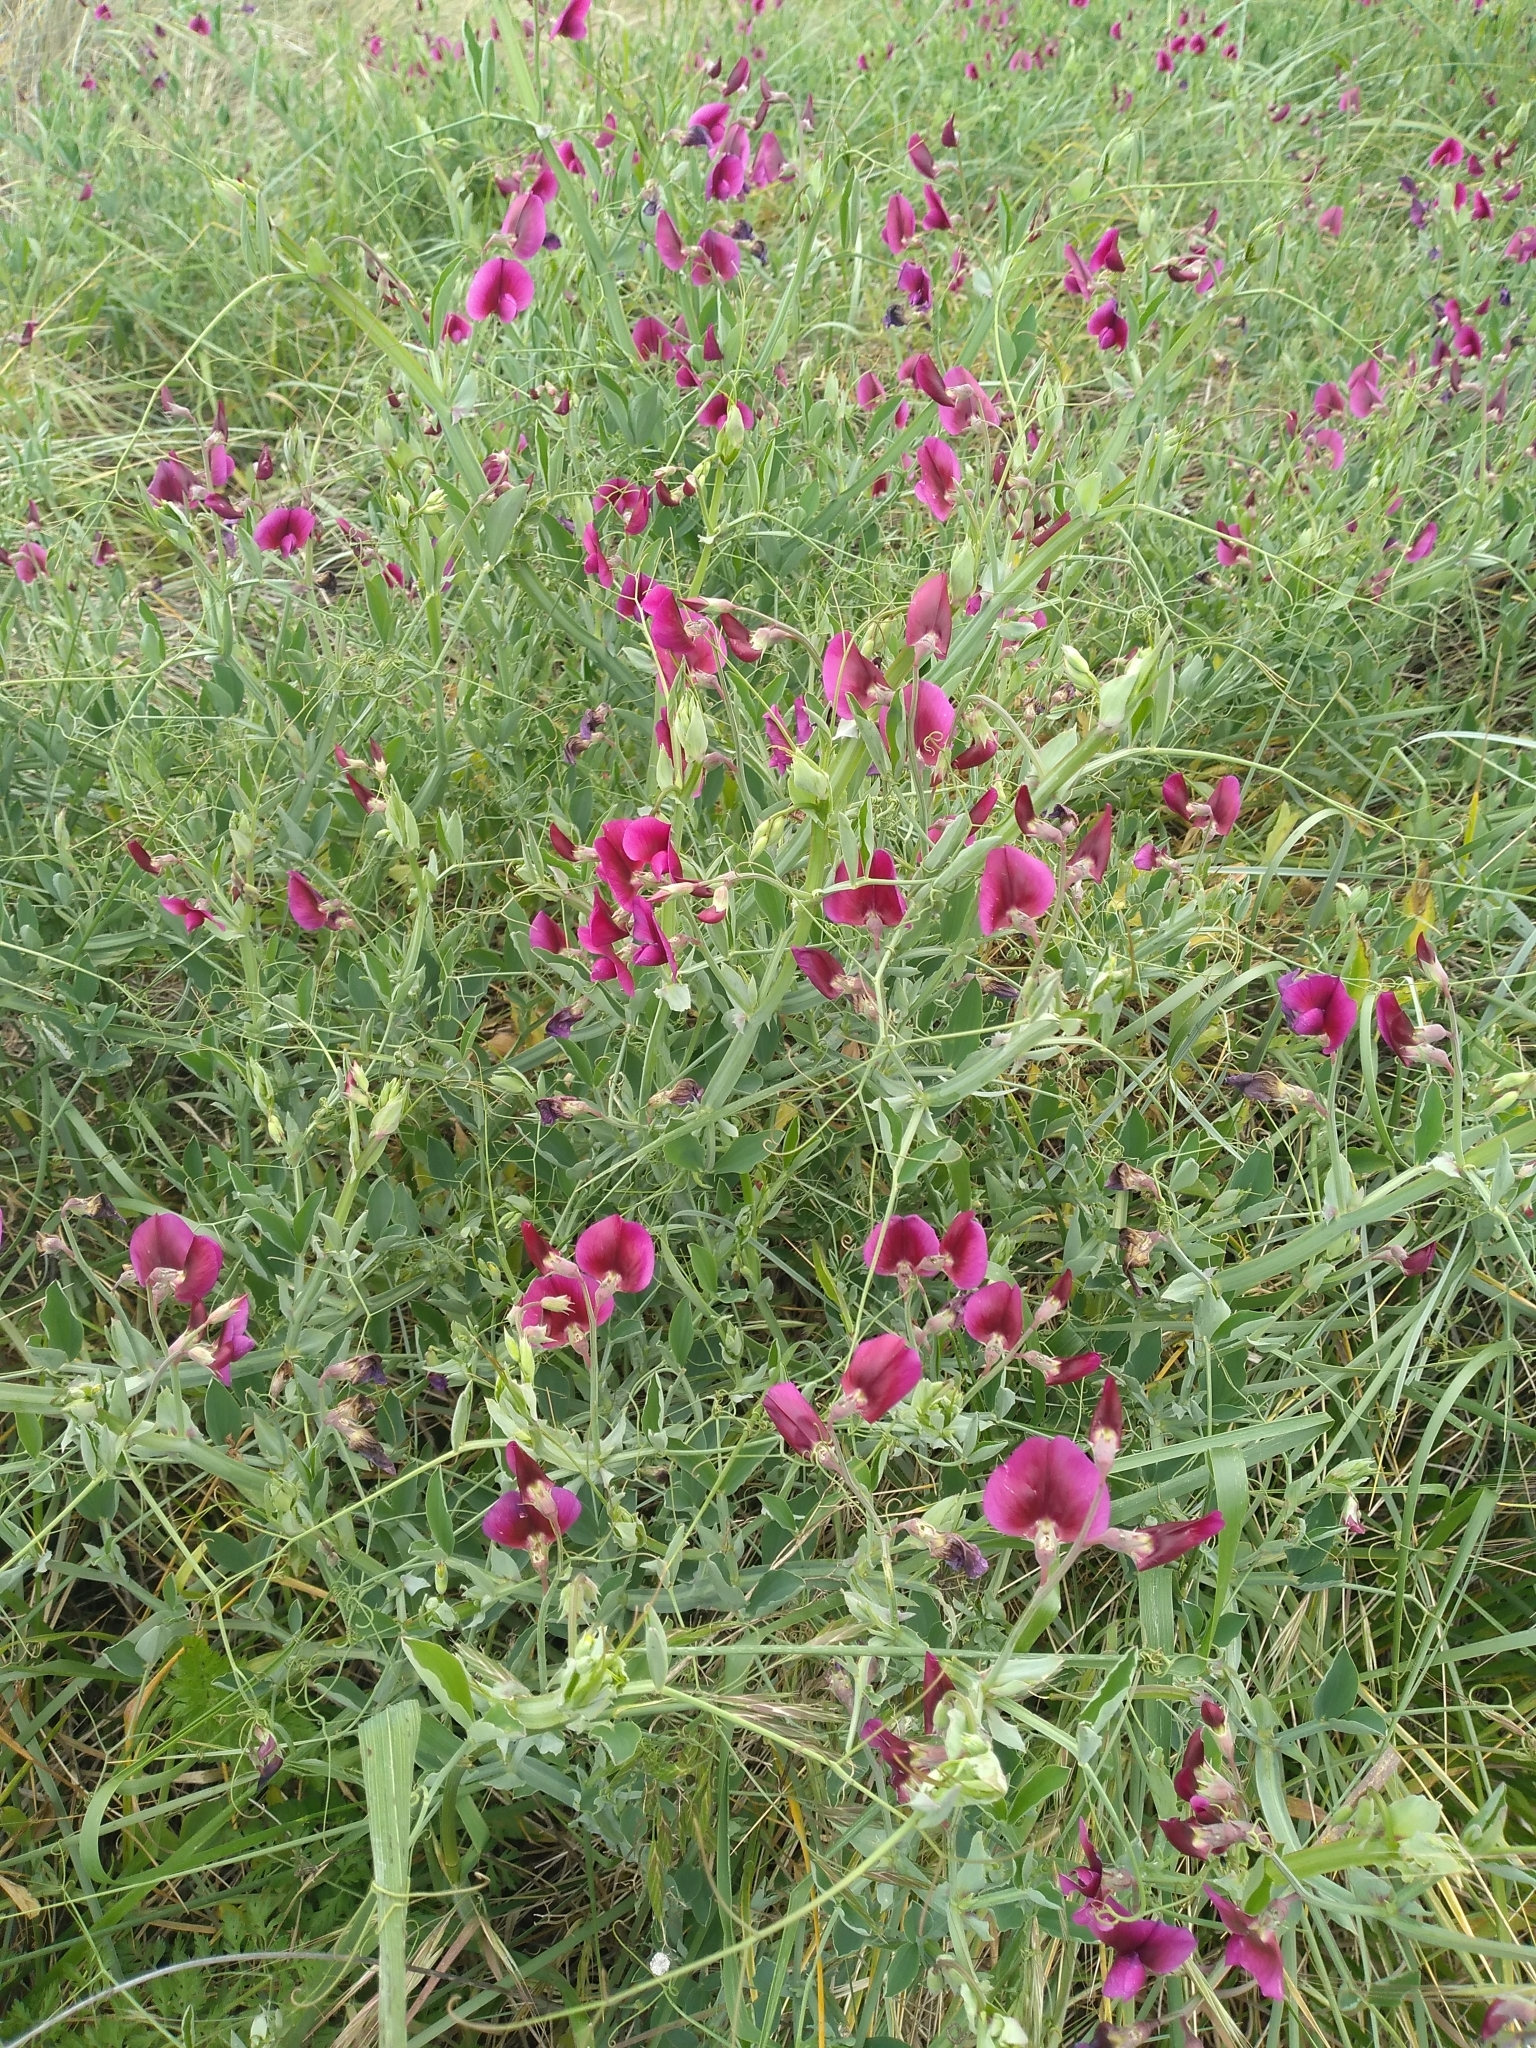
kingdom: Plantae
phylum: Tracheophyta
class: Magnoliopsida
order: Fabales
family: Fabaceae
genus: Lathyrus
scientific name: Lathyrus tingitanus
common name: Tangier pea
